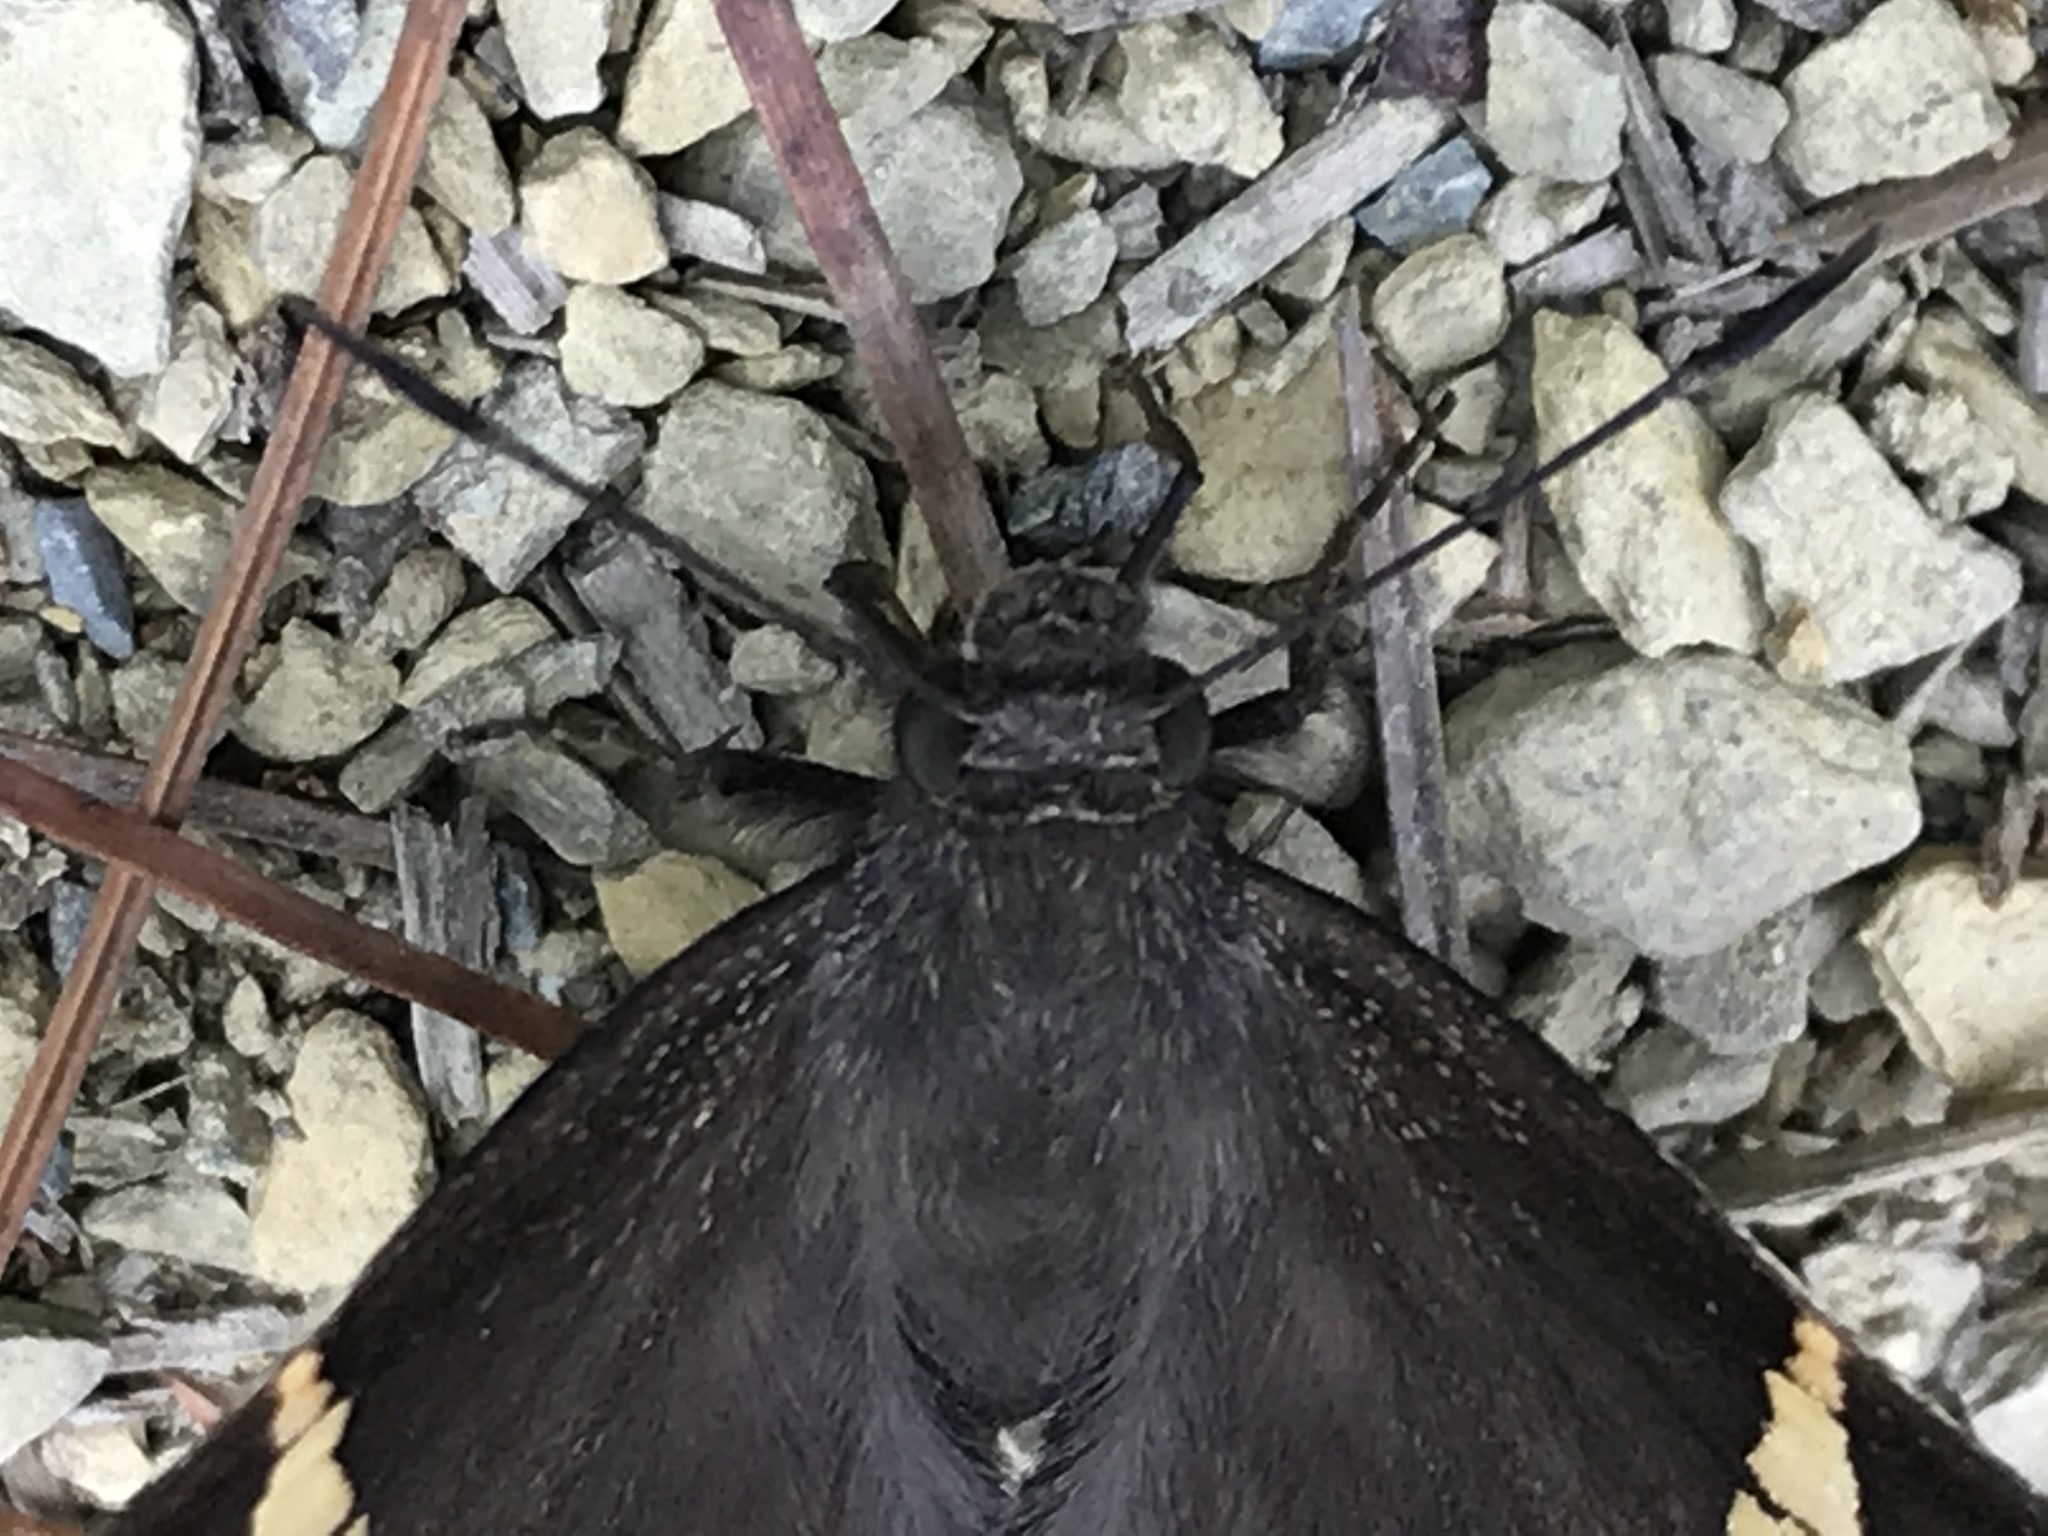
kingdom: Animalia
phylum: Arthropoda
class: Insecta
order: Lepidoptera
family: Hesperiidae
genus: Thorybes
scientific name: Thorybes cincta
